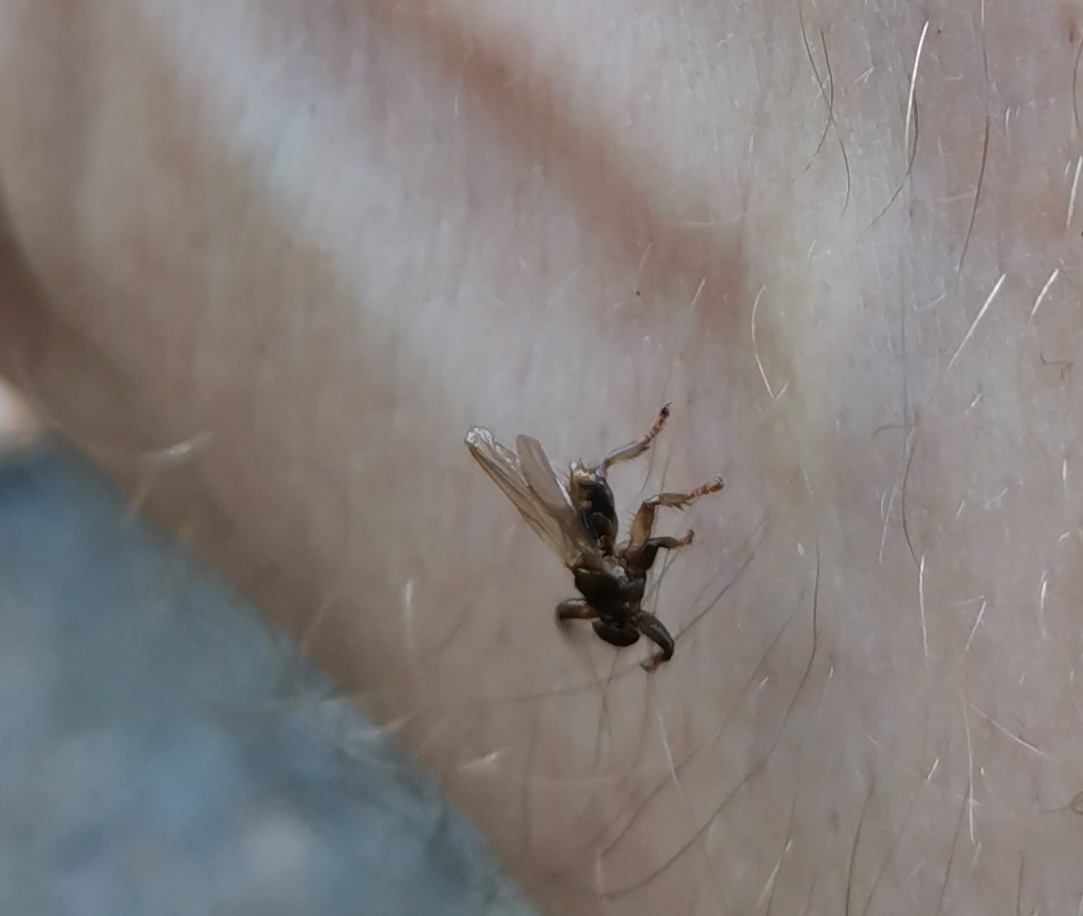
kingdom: Animalia
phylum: Arthropoda
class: Insecta
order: Diptera
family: Hippoboscidae
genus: Lipoptena
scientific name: Lipoptena cervi
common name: Deer ked
